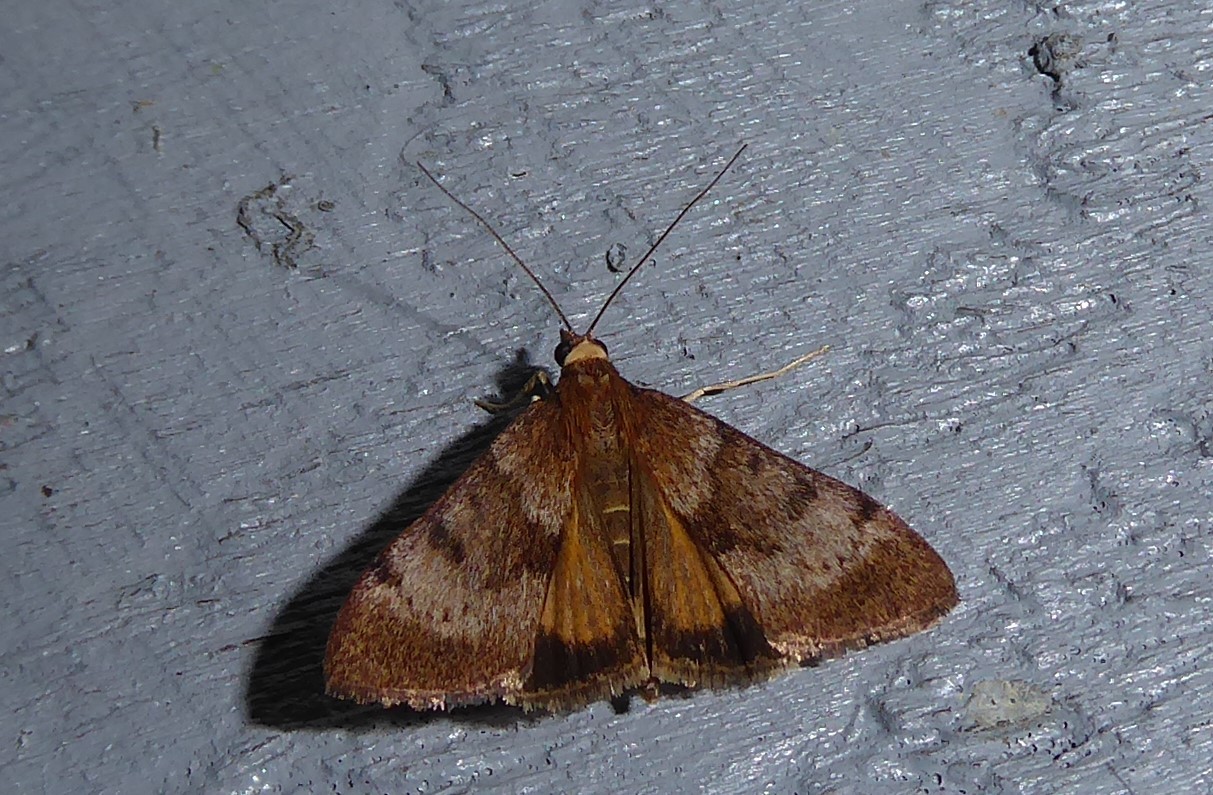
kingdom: Animalia
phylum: Arthropoda
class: Insecta
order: Lepidoptera
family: Crambidae
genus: Uresiphita
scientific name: Uresiphita
